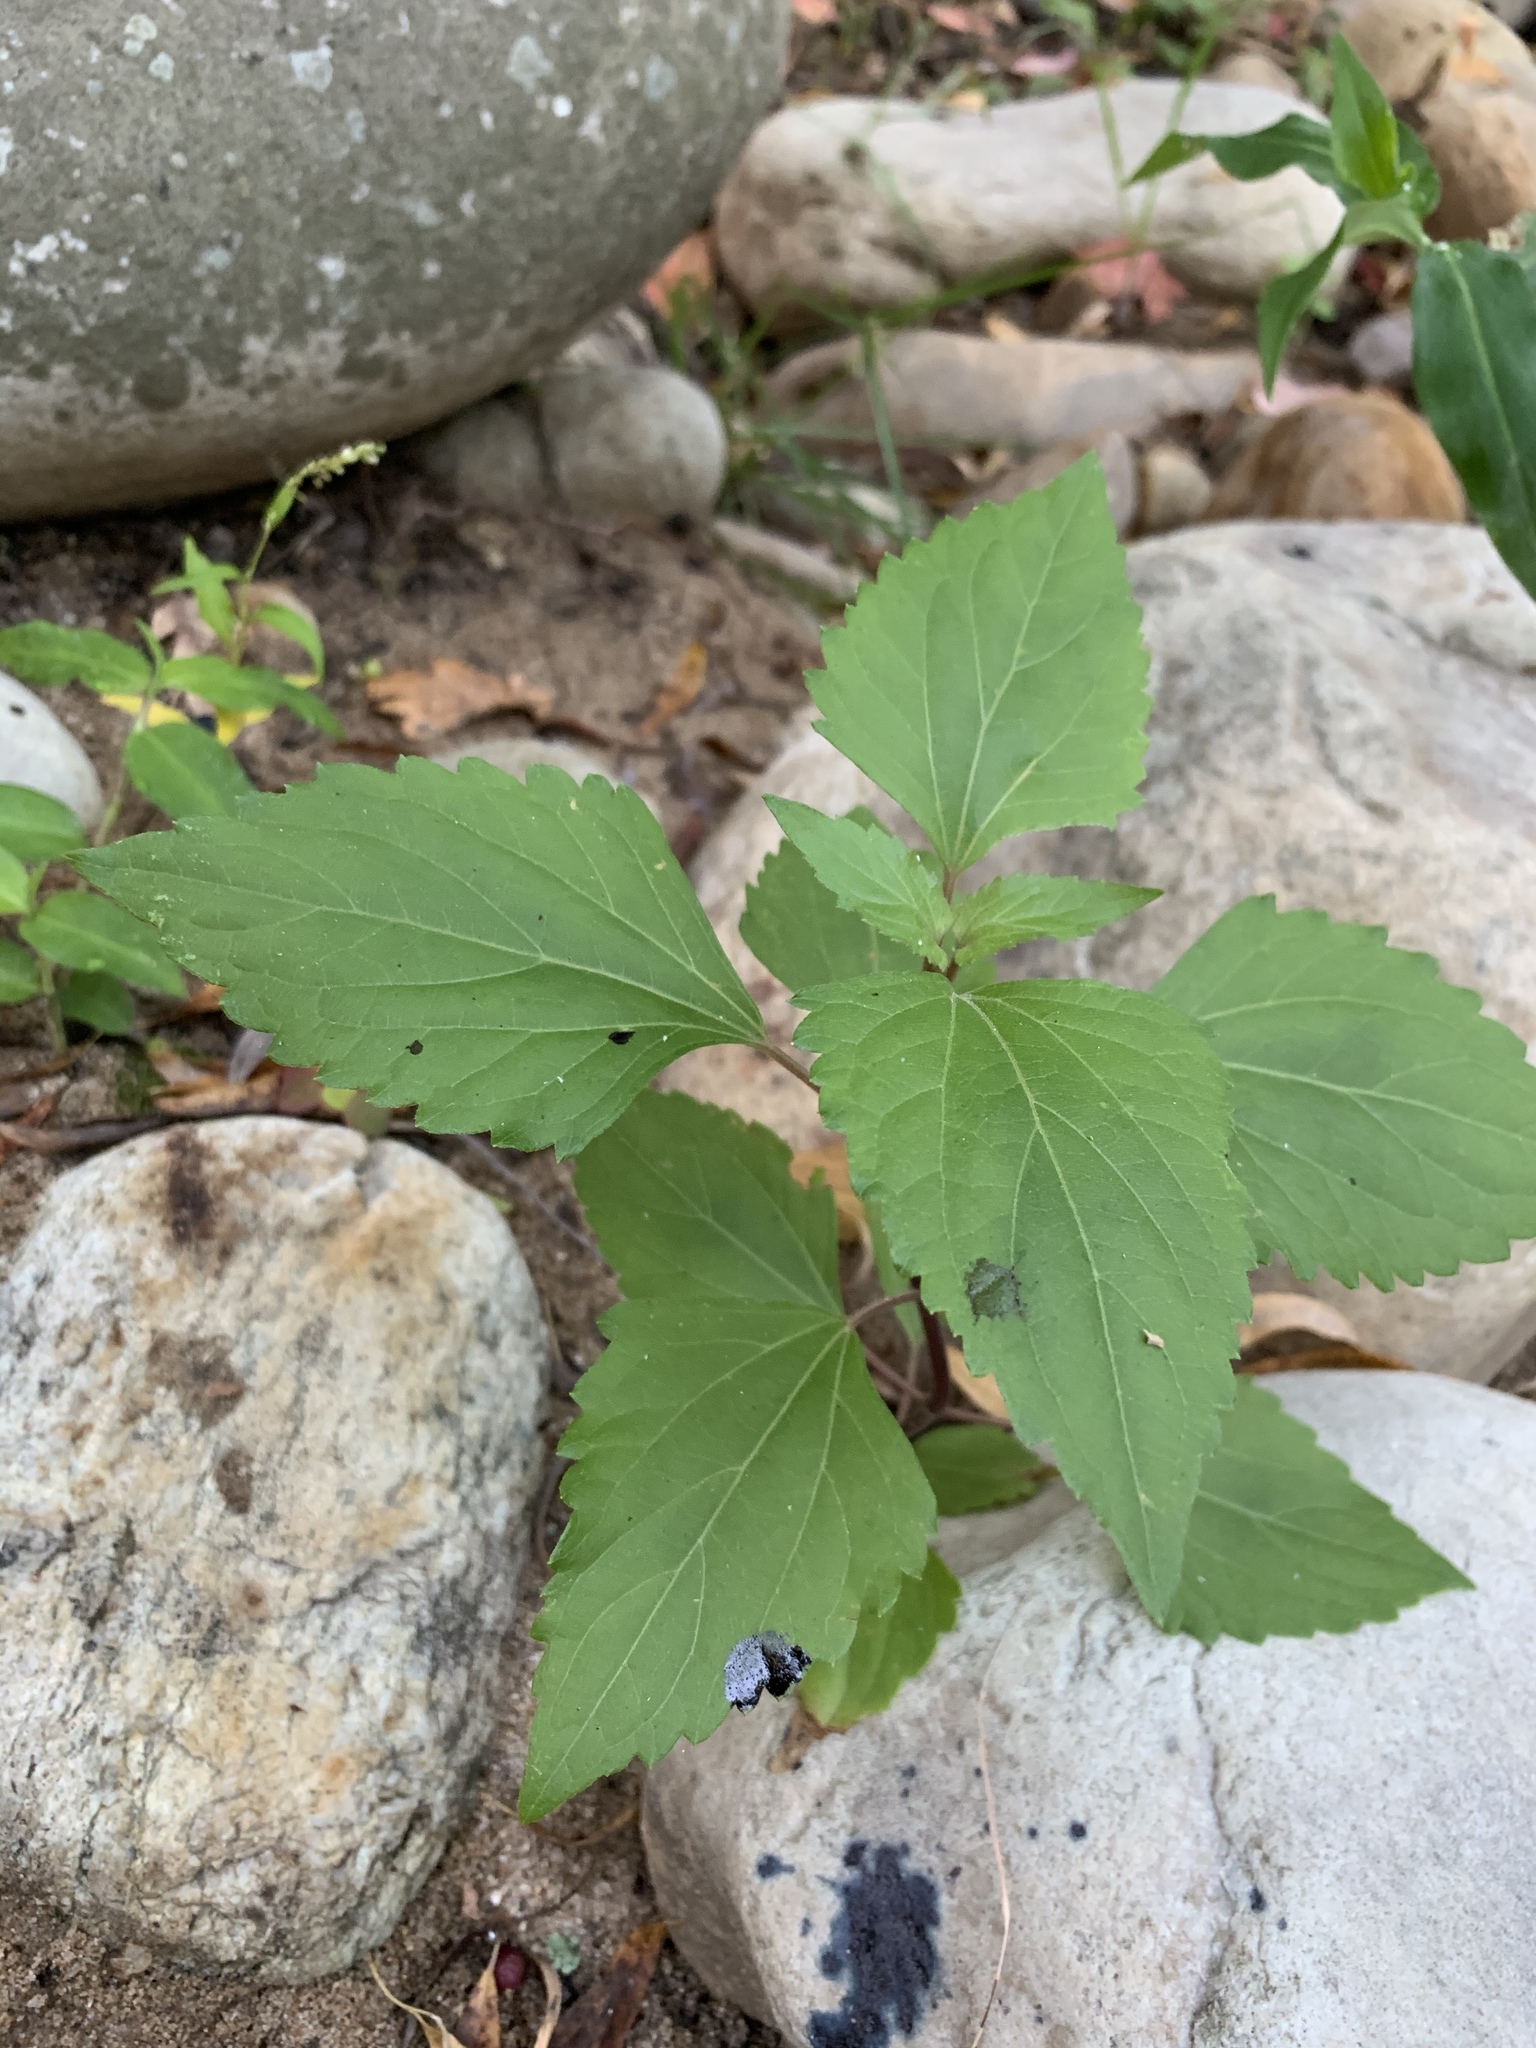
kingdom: Plantae
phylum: Tracheophyta
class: Magnoliopsida
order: Asterales
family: Asteraceae
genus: Ageratina
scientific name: Ageratina adenophora
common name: Sticky snakeroot
